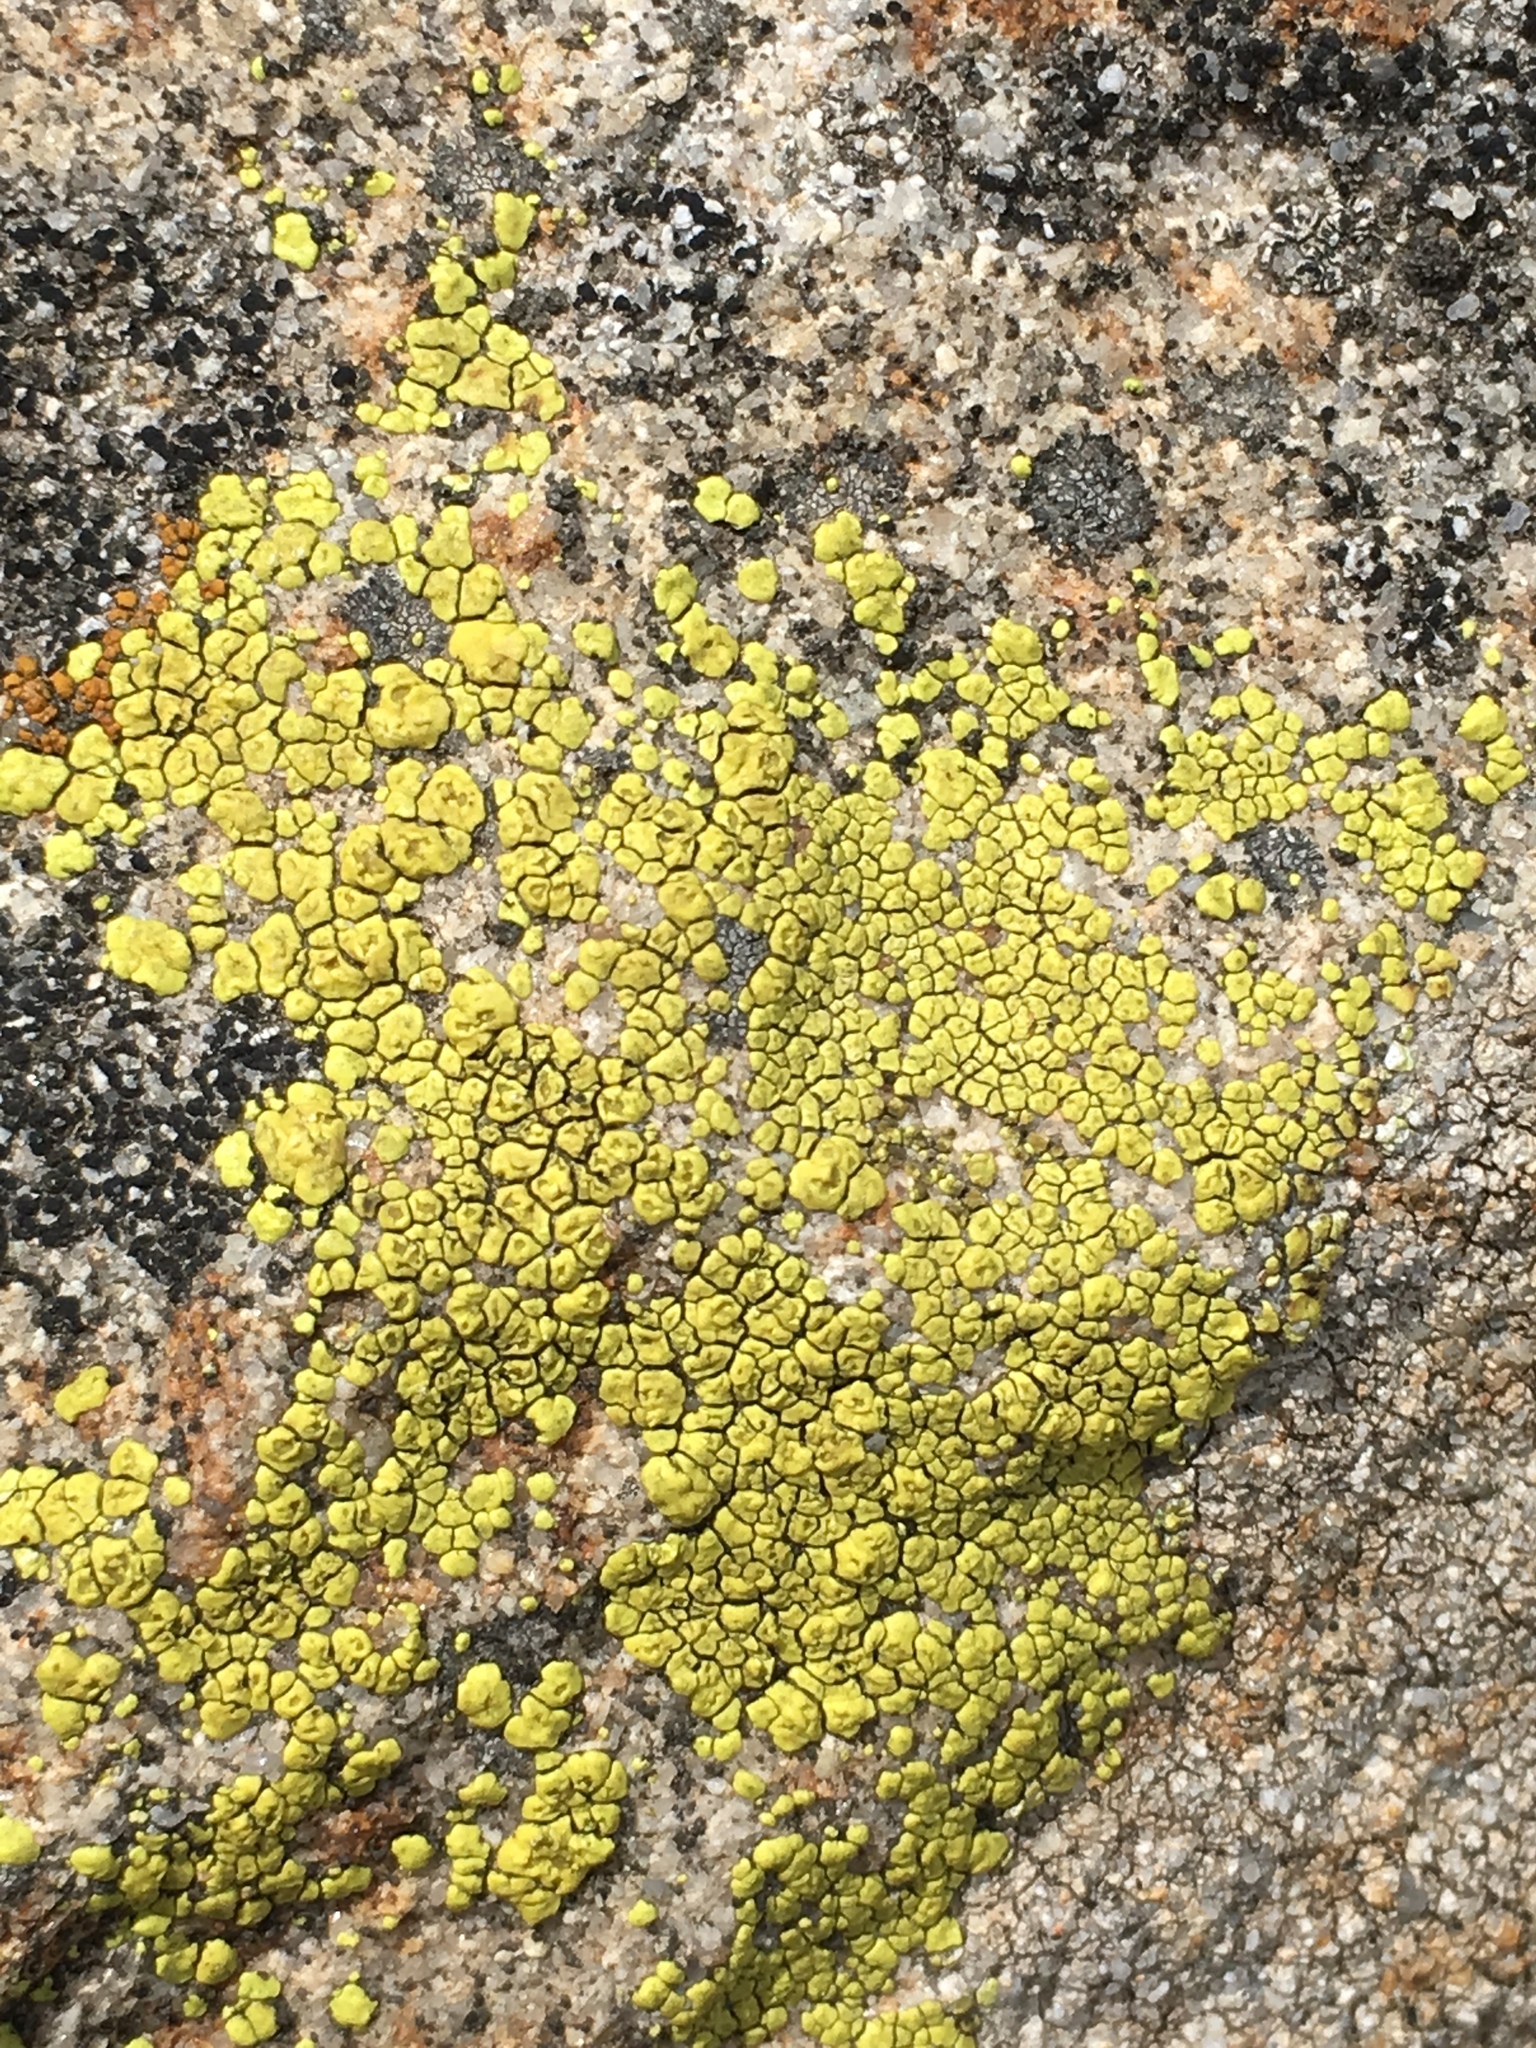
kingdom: Fungi
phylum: Ascomycota
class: Lecanoromycetes
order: Acarosporales
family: Acarosporaceae
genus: Acarospora
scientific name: Acarospora socialis
